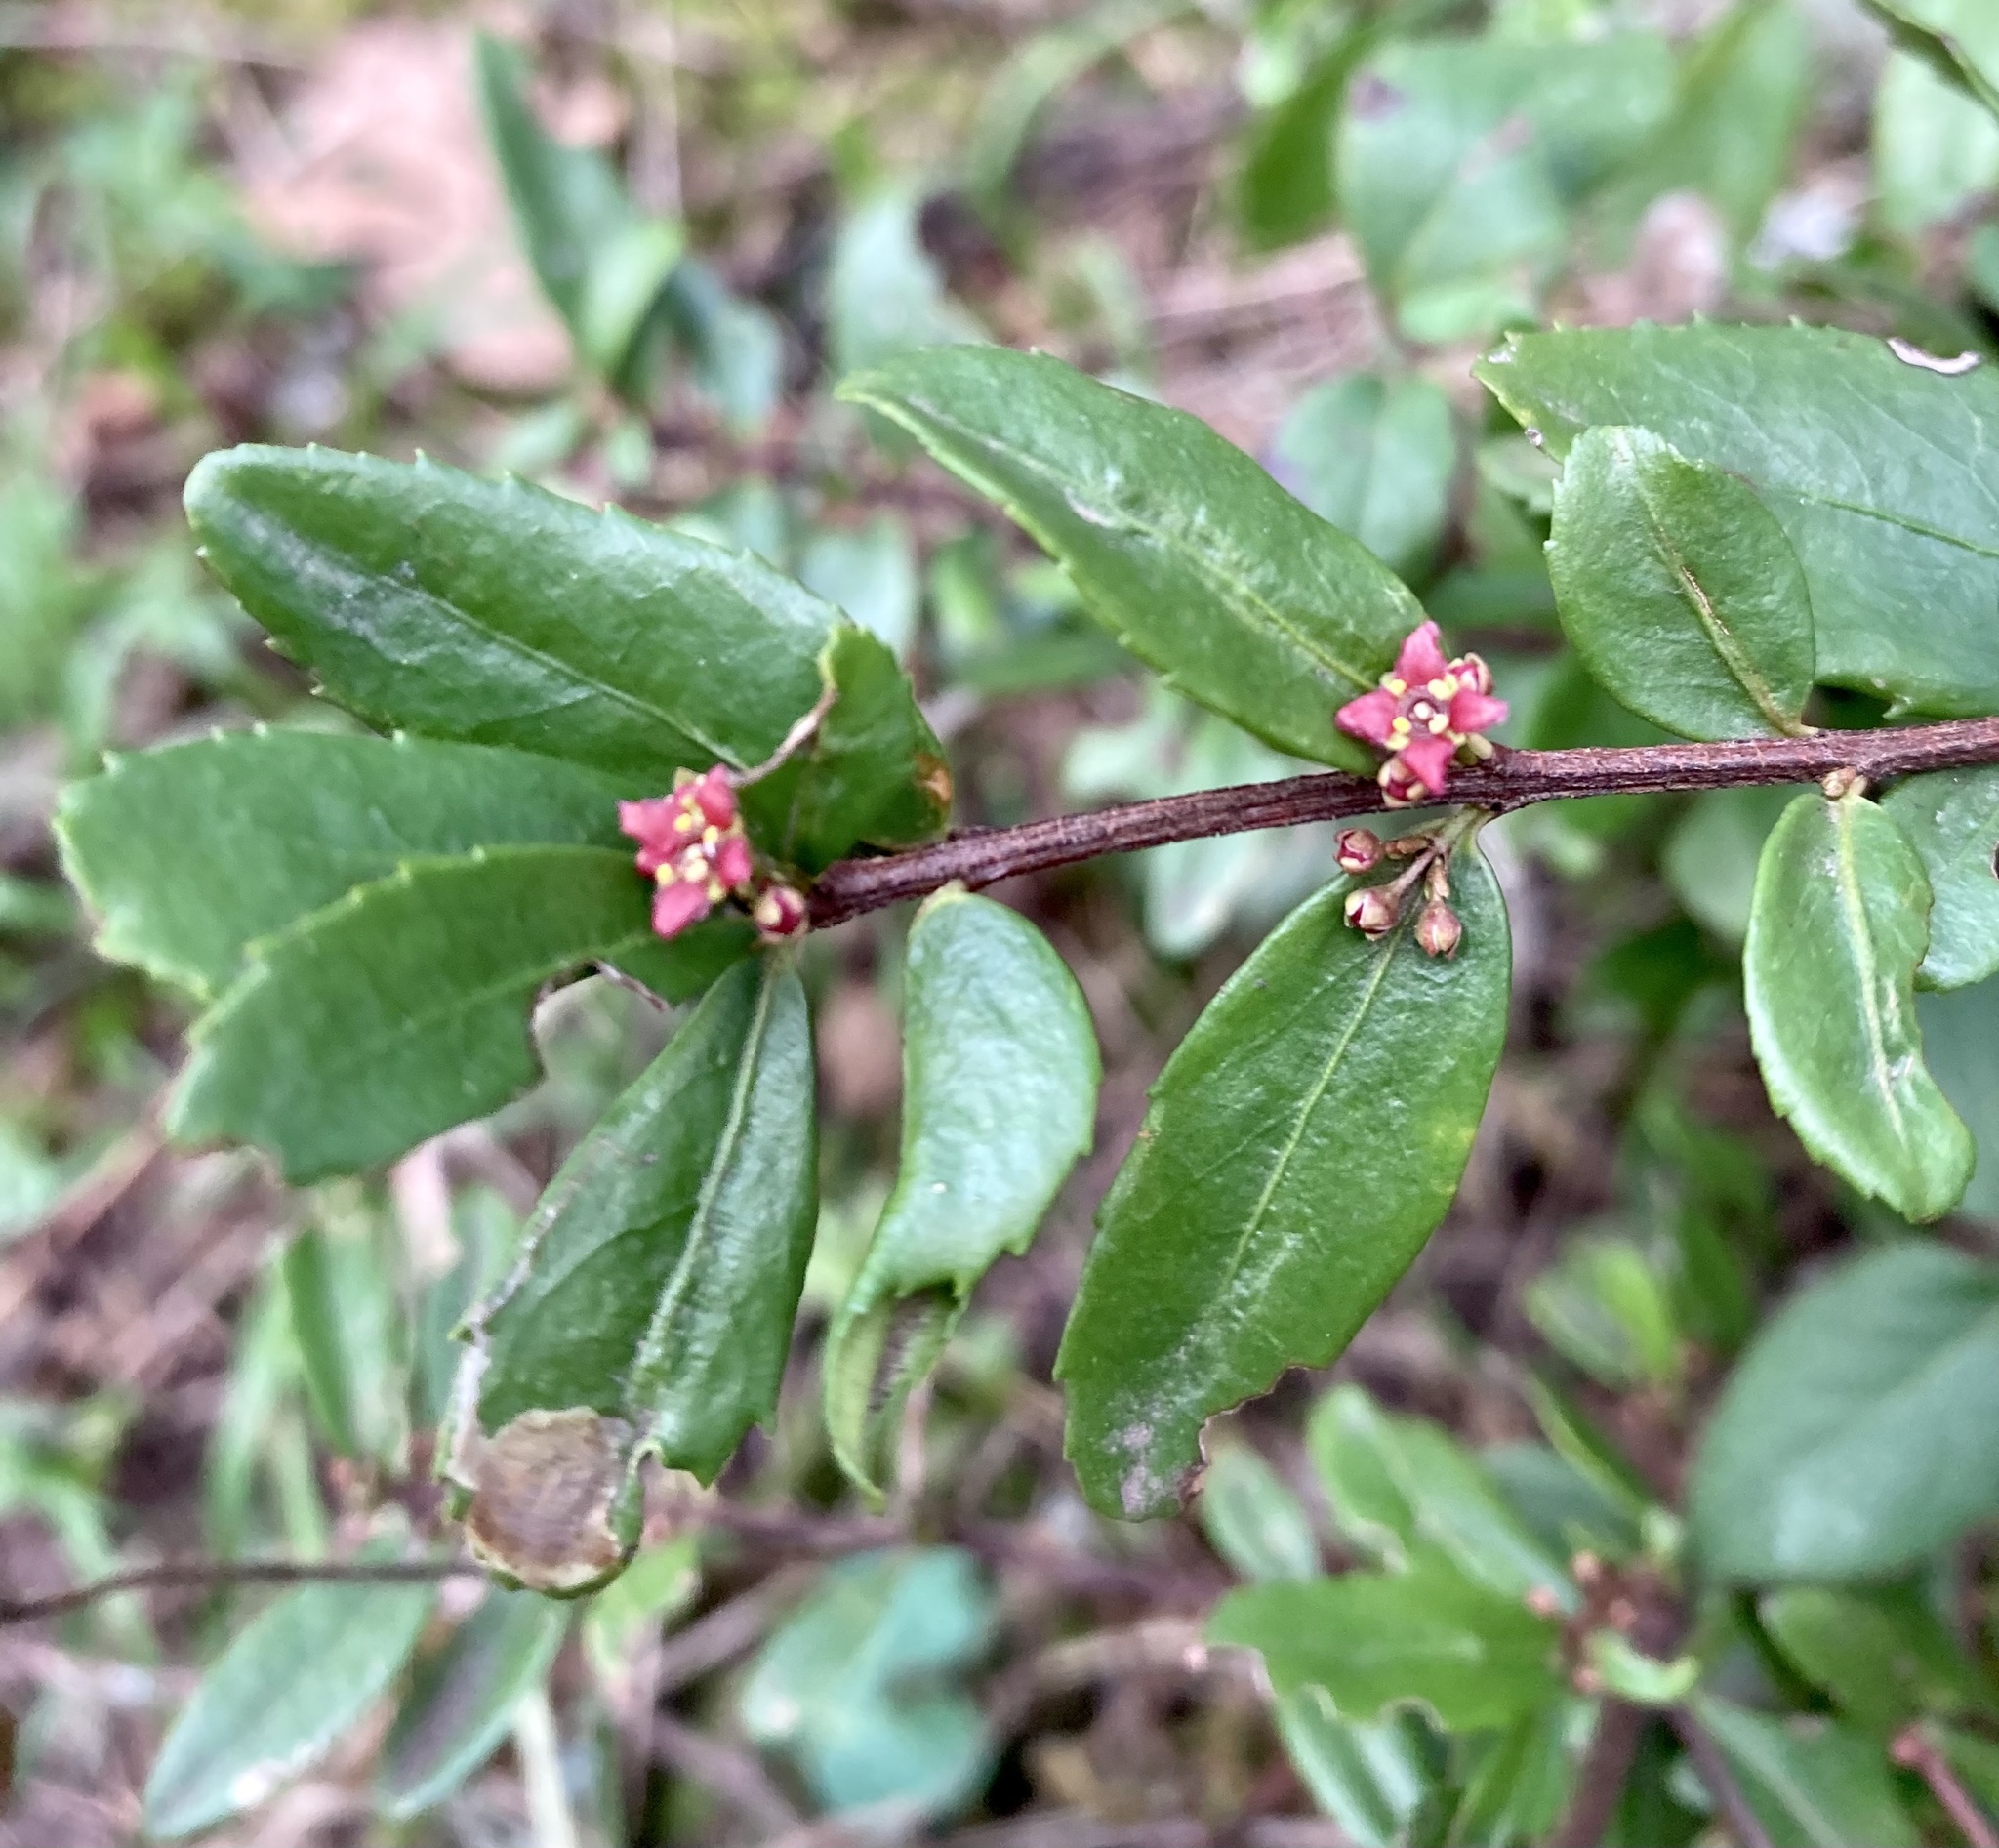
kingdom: Plantae
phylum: Tracheophyta
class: Magnoliopsida
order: Celastrales
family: Celastraceae
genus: Paxistima
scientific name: Paxistima myrsinites
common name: Mountain-lover
